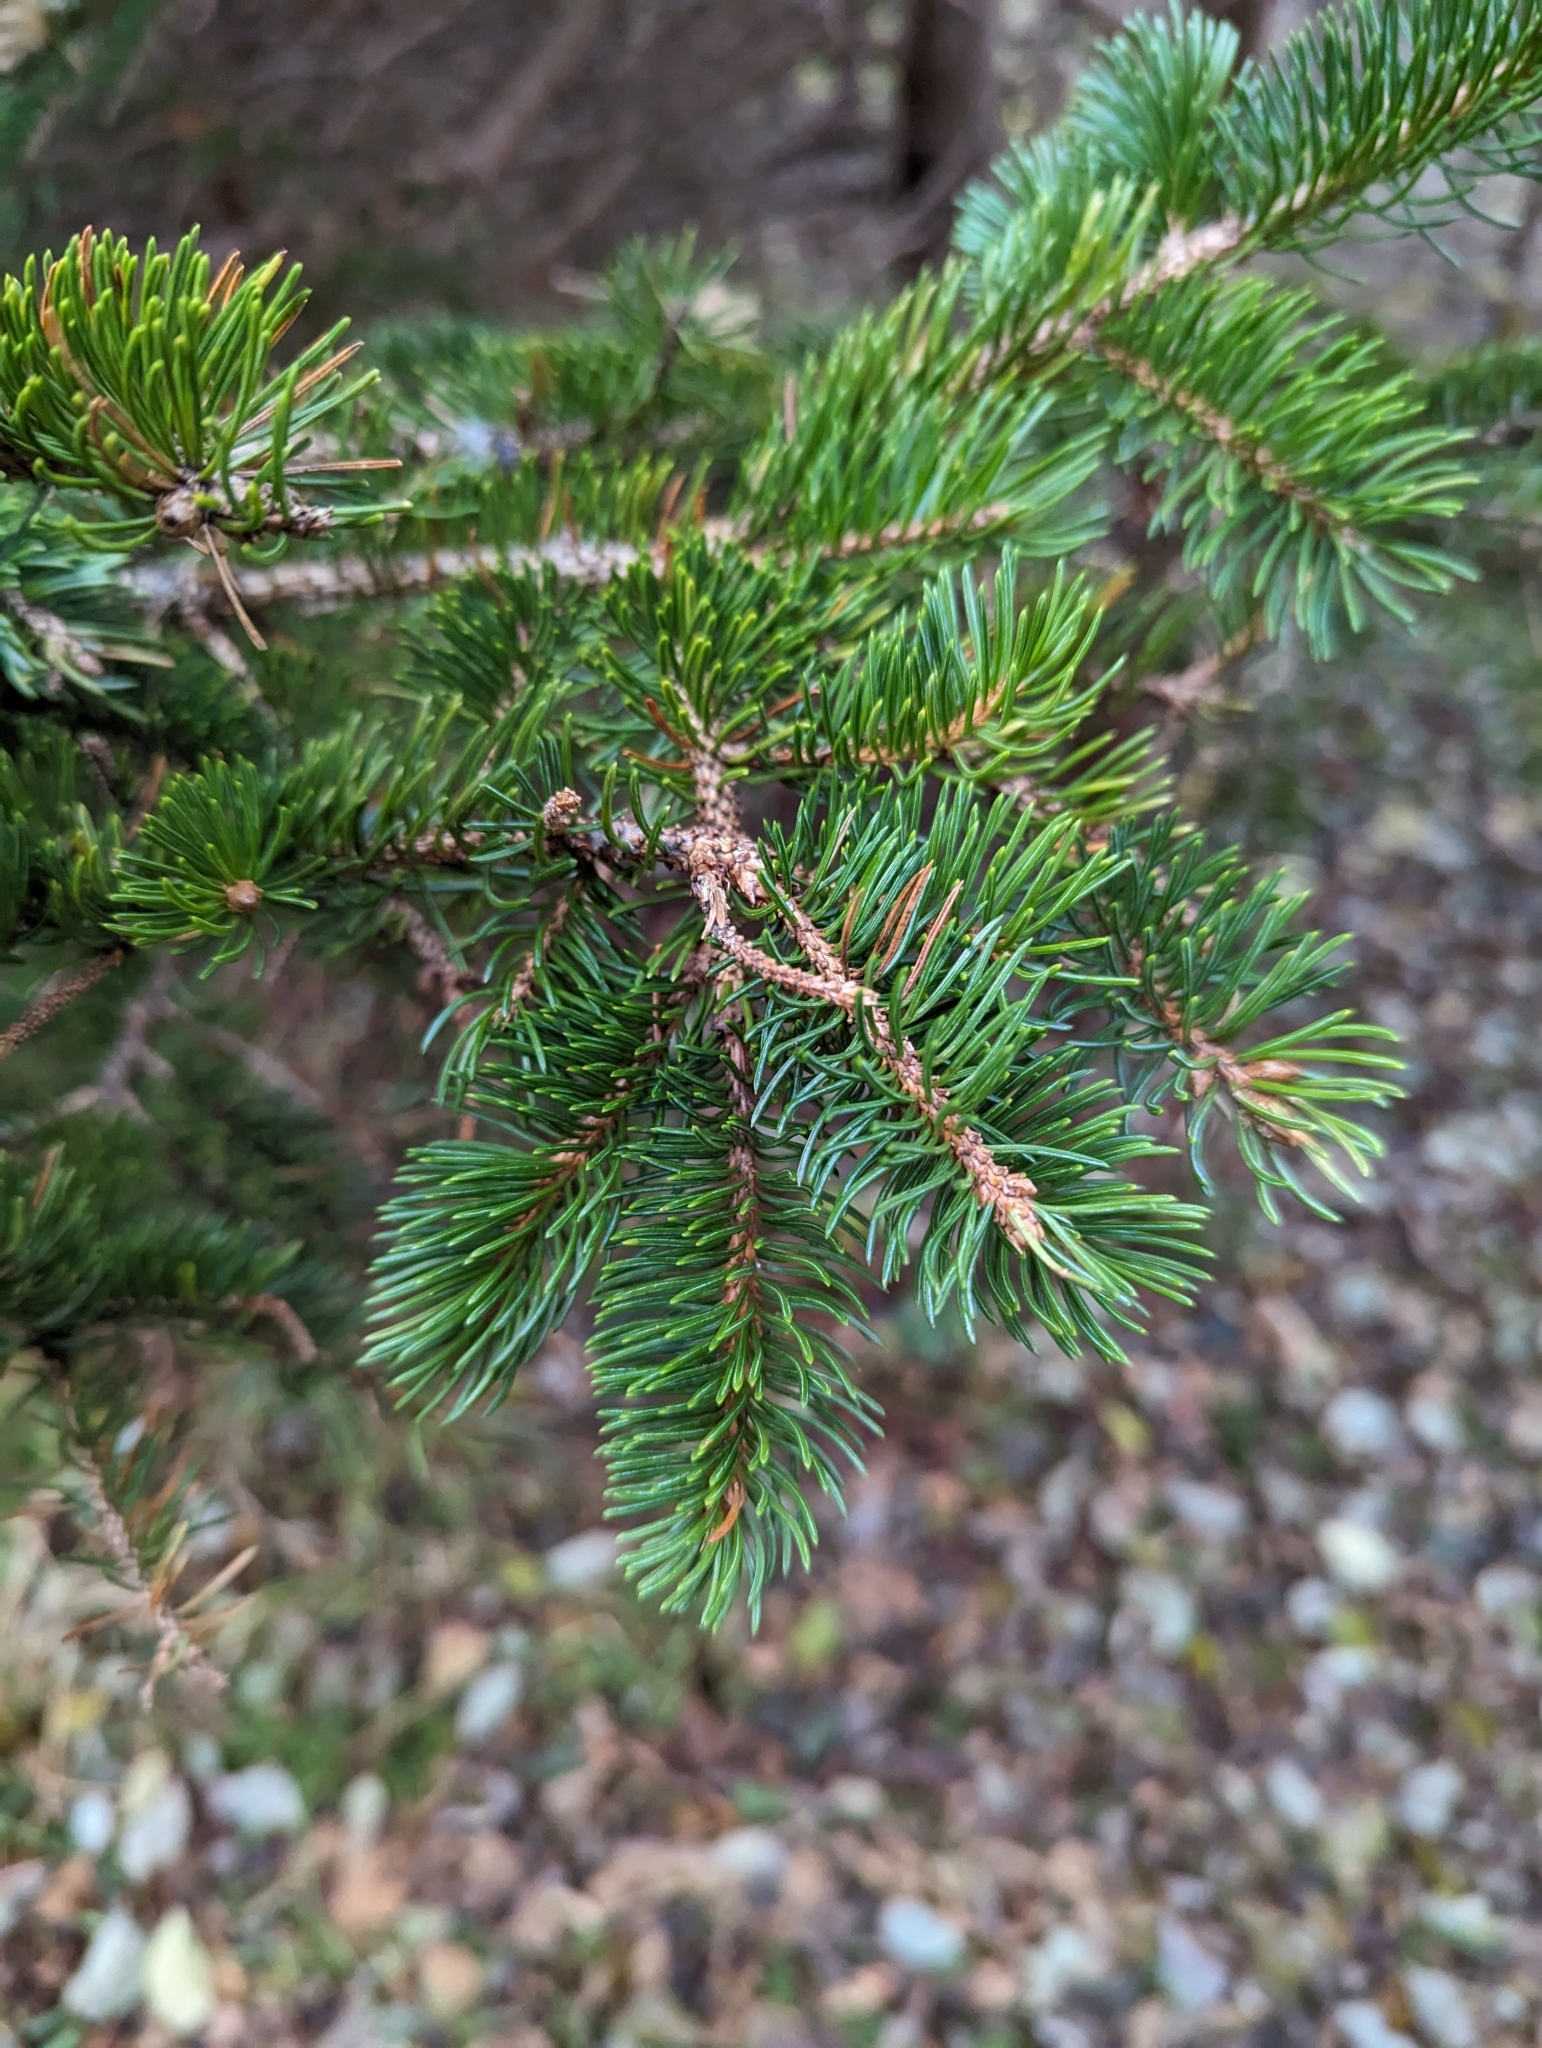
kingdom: Plantae
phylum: Tracheophyta
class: Pinopsida
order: Pinales
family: Pinaceae
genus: Picea
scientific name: Picea glauca
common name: White spruce
